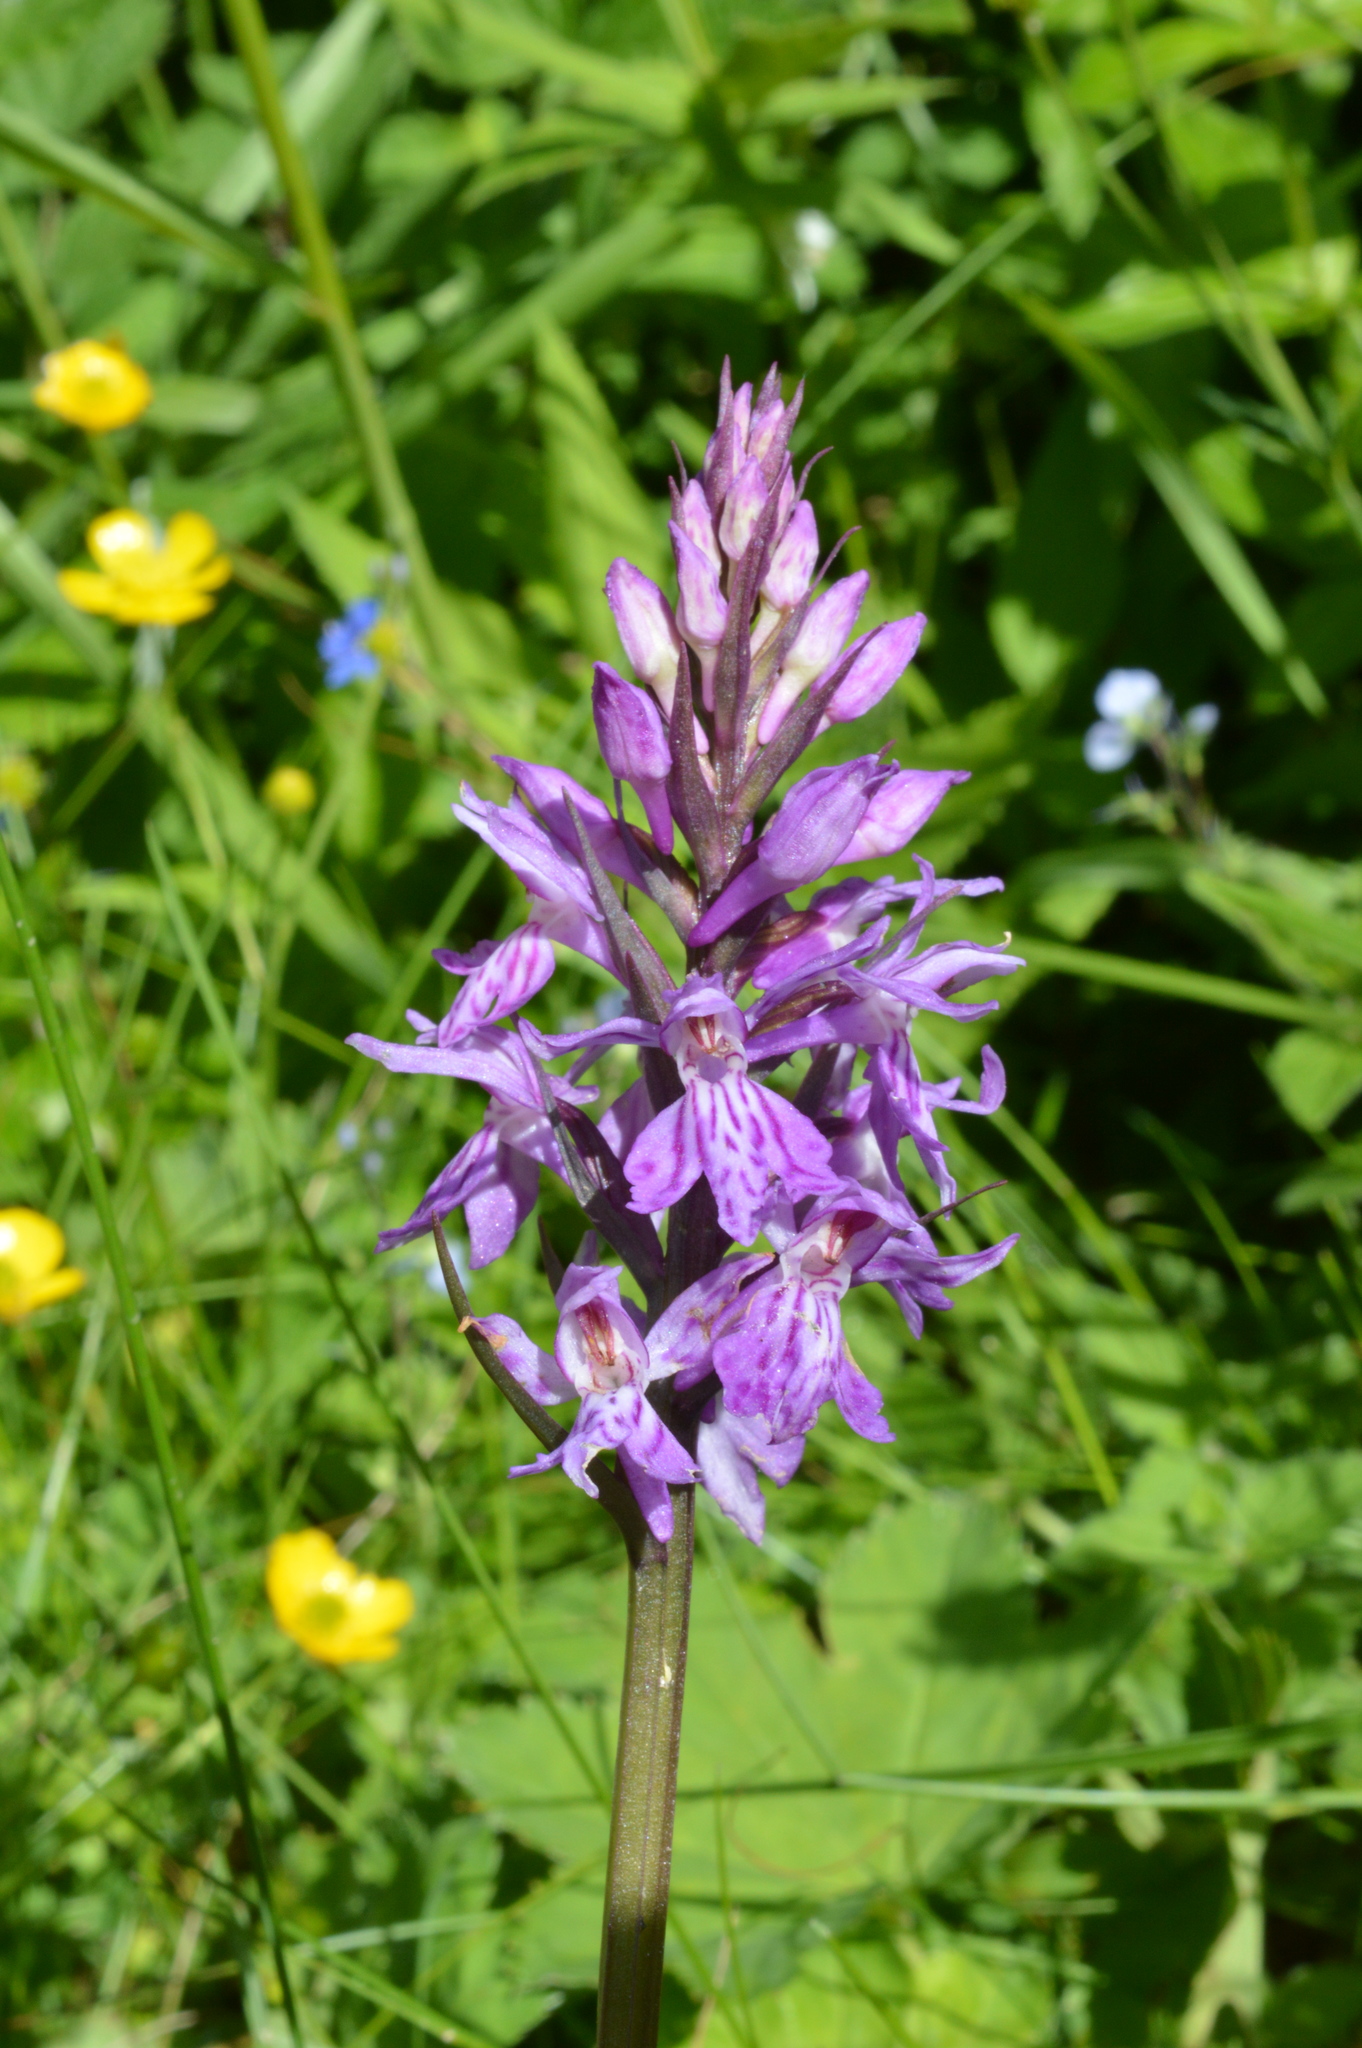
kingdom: Plantae
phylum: Tracheophyta
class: Liliopsida
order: Asparagales
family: Orchidaceae
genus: Dactylorhiza
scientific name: Dactylorhiza maculata
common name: Heath spotted-orchid
